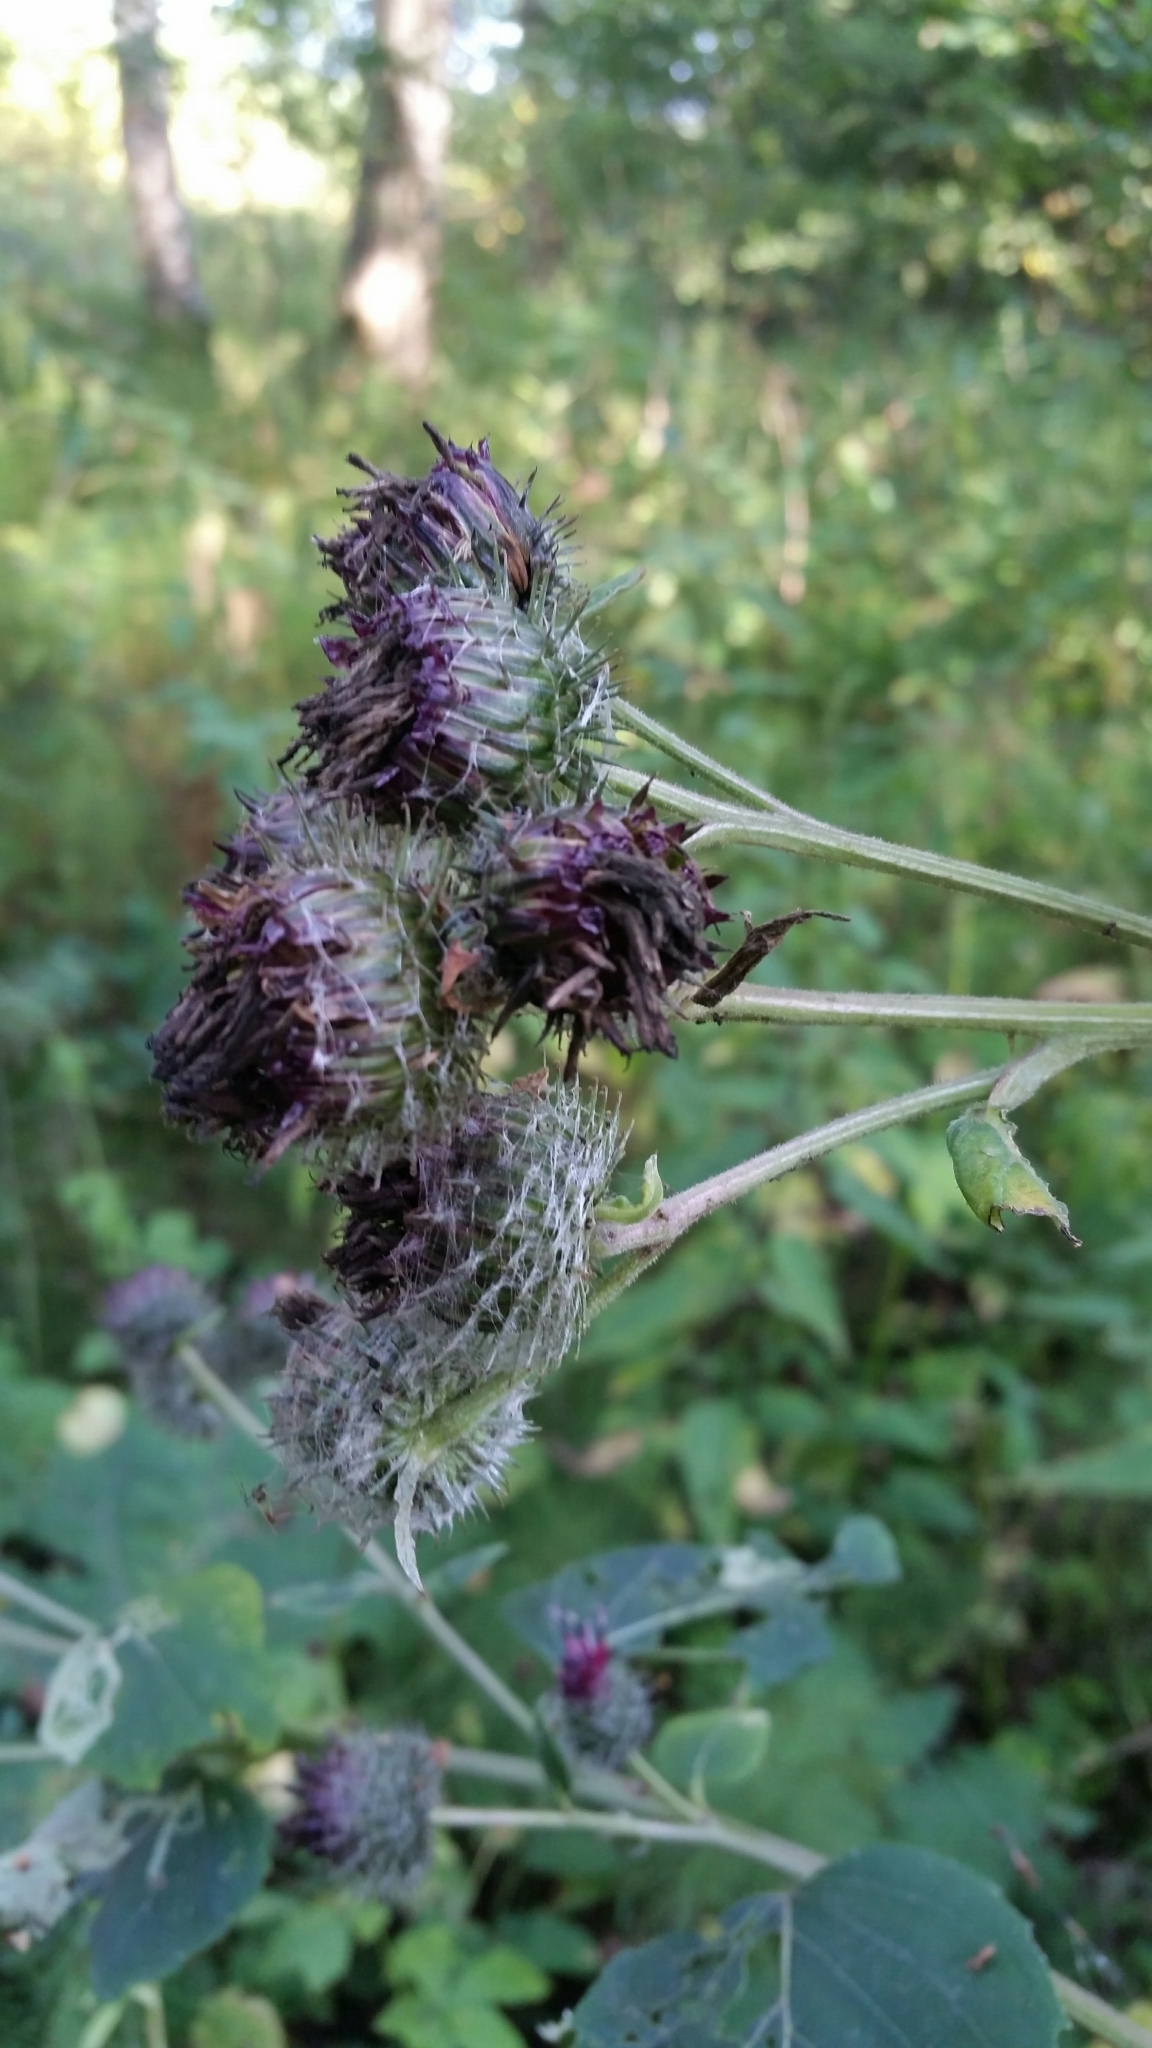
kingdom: Plantae
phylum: Tracheophyta
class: Magnoliopsida
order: Asterales
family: Asteraceae
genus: Arctium
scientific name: Arctium tomentosum
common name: Woolly burdock
